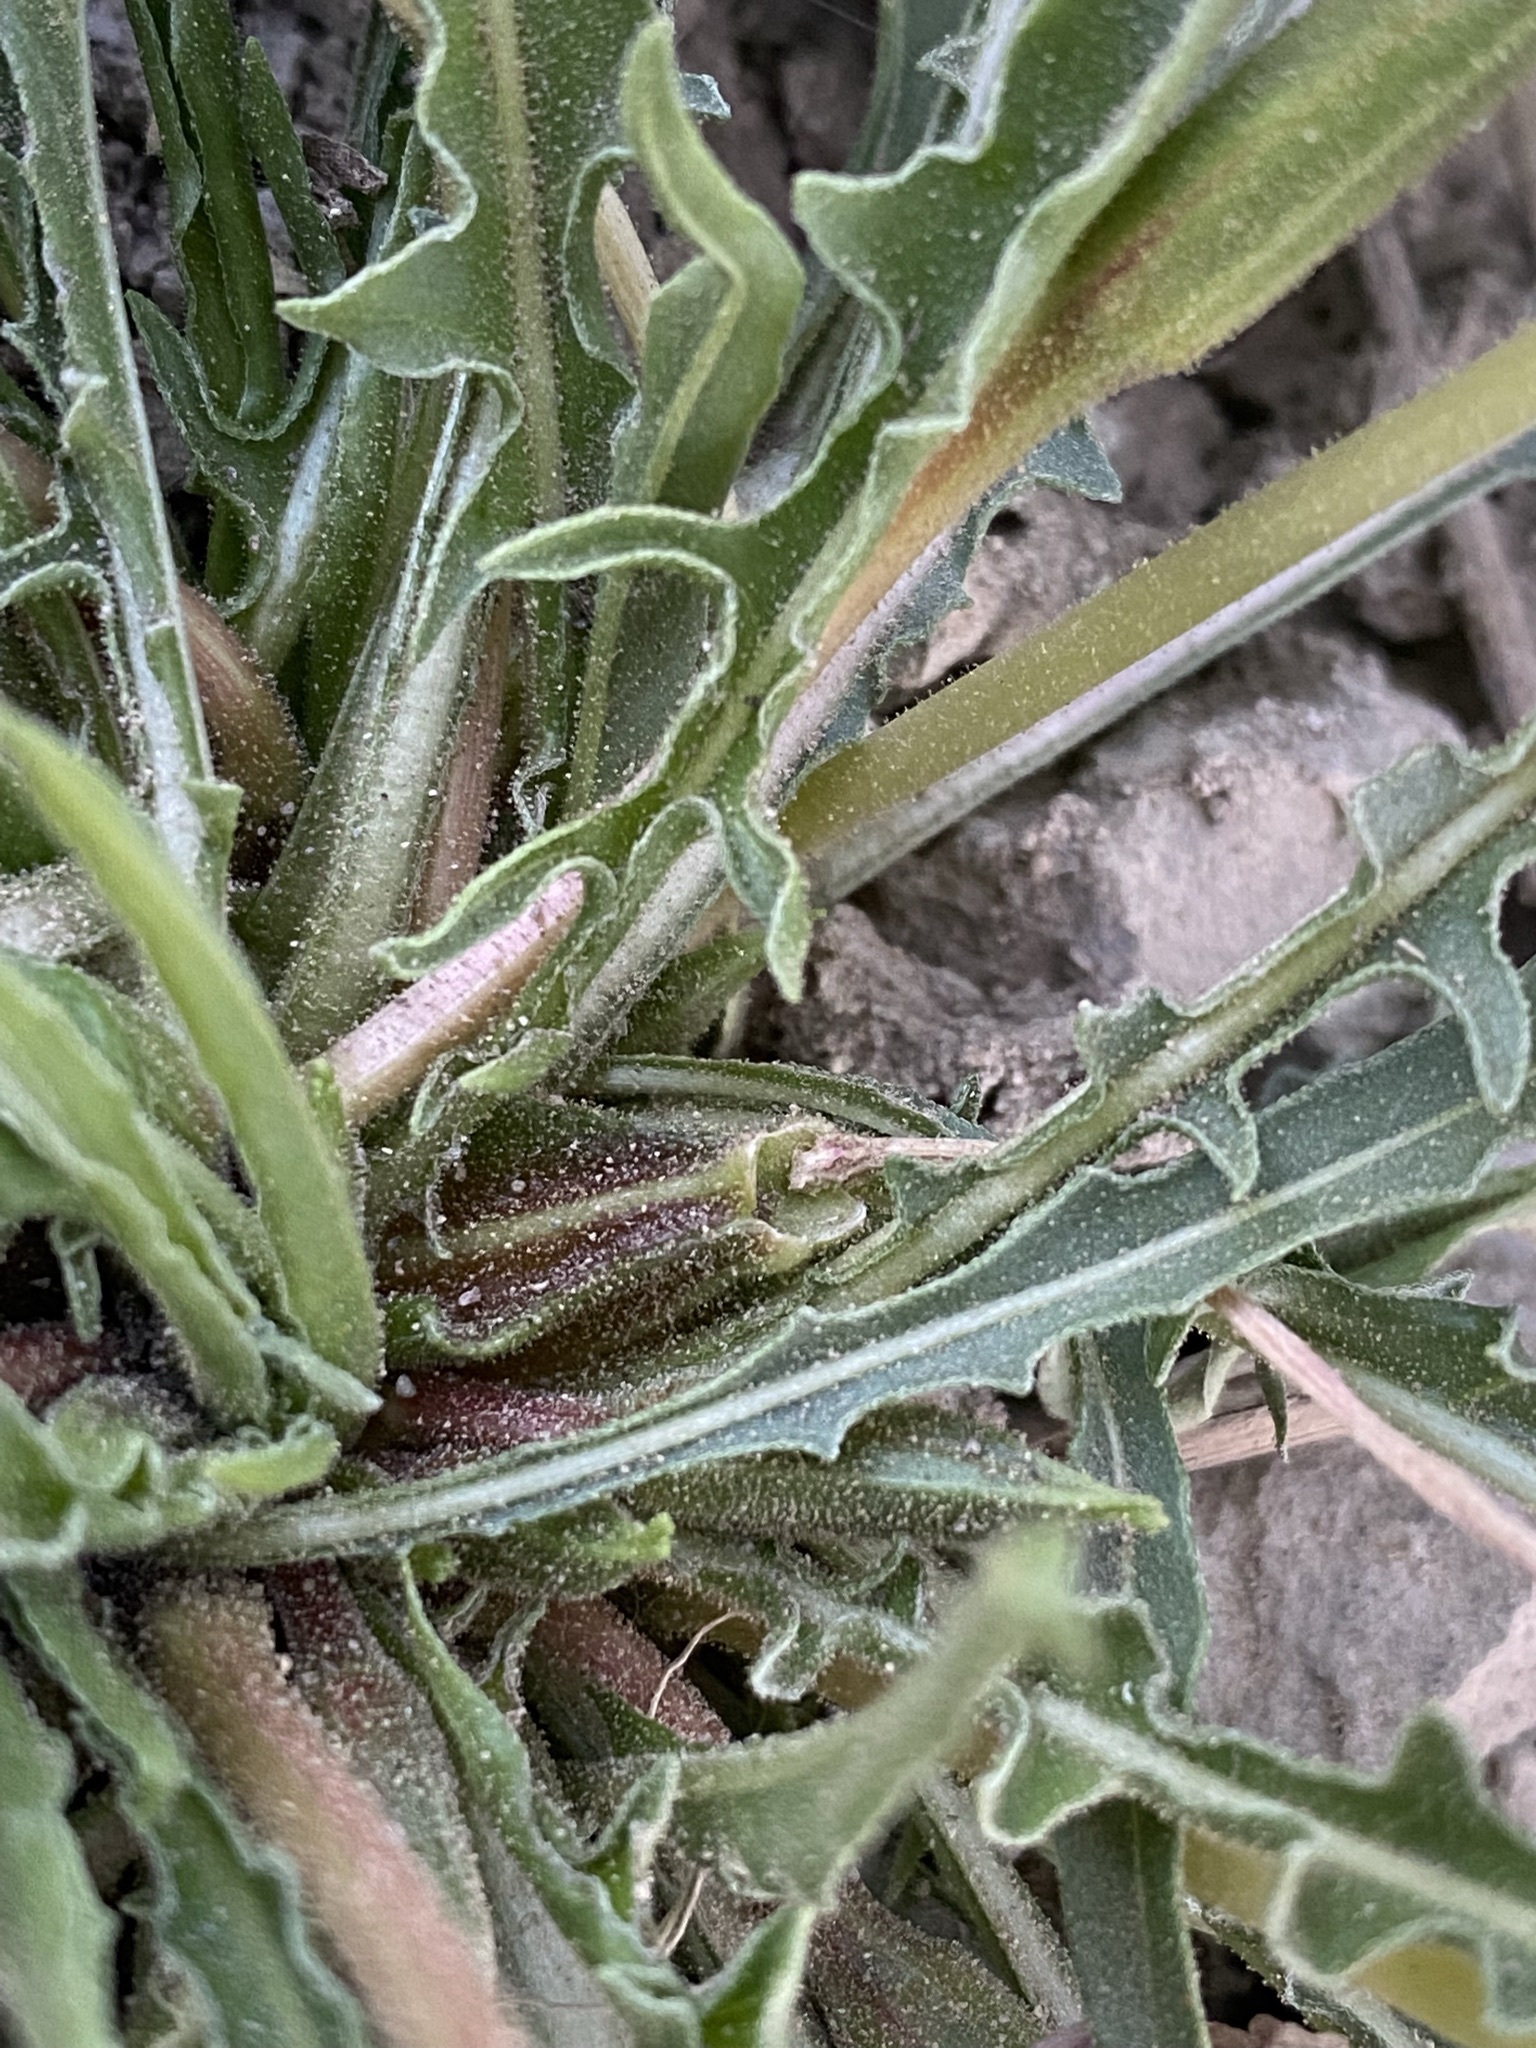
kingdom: Plantae
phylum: Tracheophyta
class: Magnoliopsida
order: Myrtales
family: Onagraceae
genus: Oenothera
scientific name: Oenothera flava
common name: Long-tubed evening-primrose
